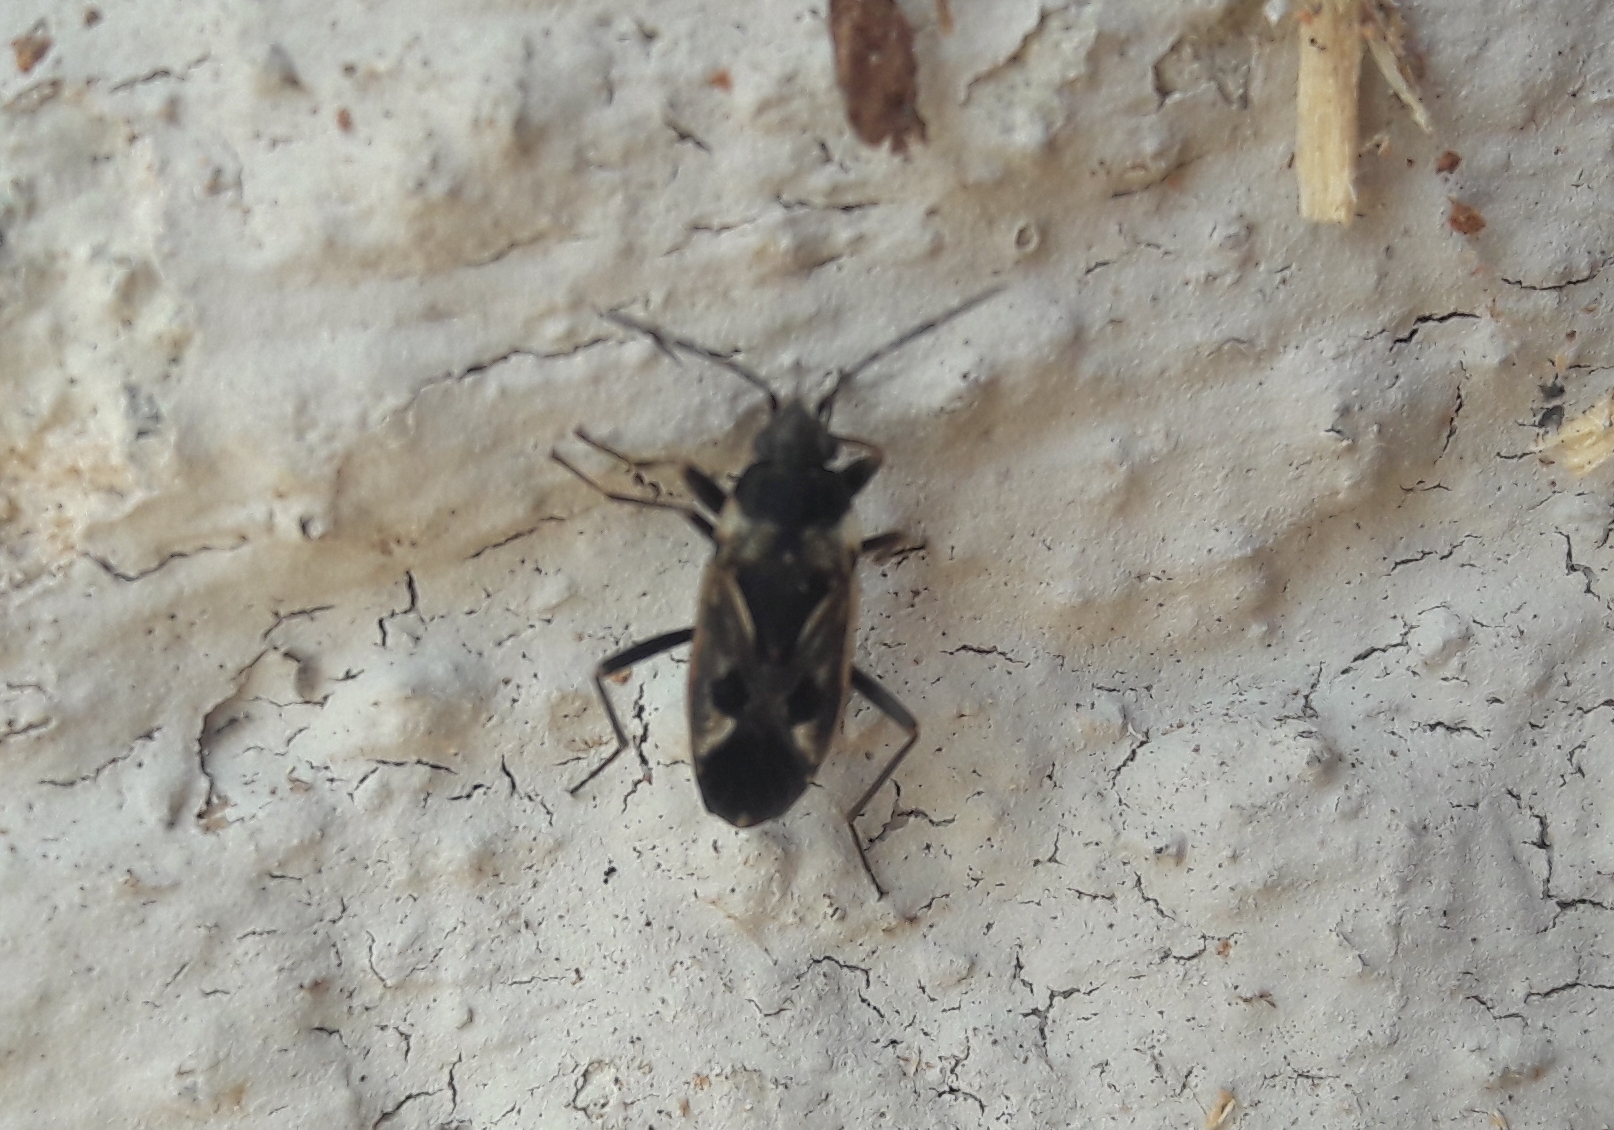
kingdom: Animalia
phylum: Arthropoda
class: Insecta
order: Hemiptera
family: Rhyparochromidae
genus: Rhyparochromus
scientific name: Rhyparochromus vulgaris
